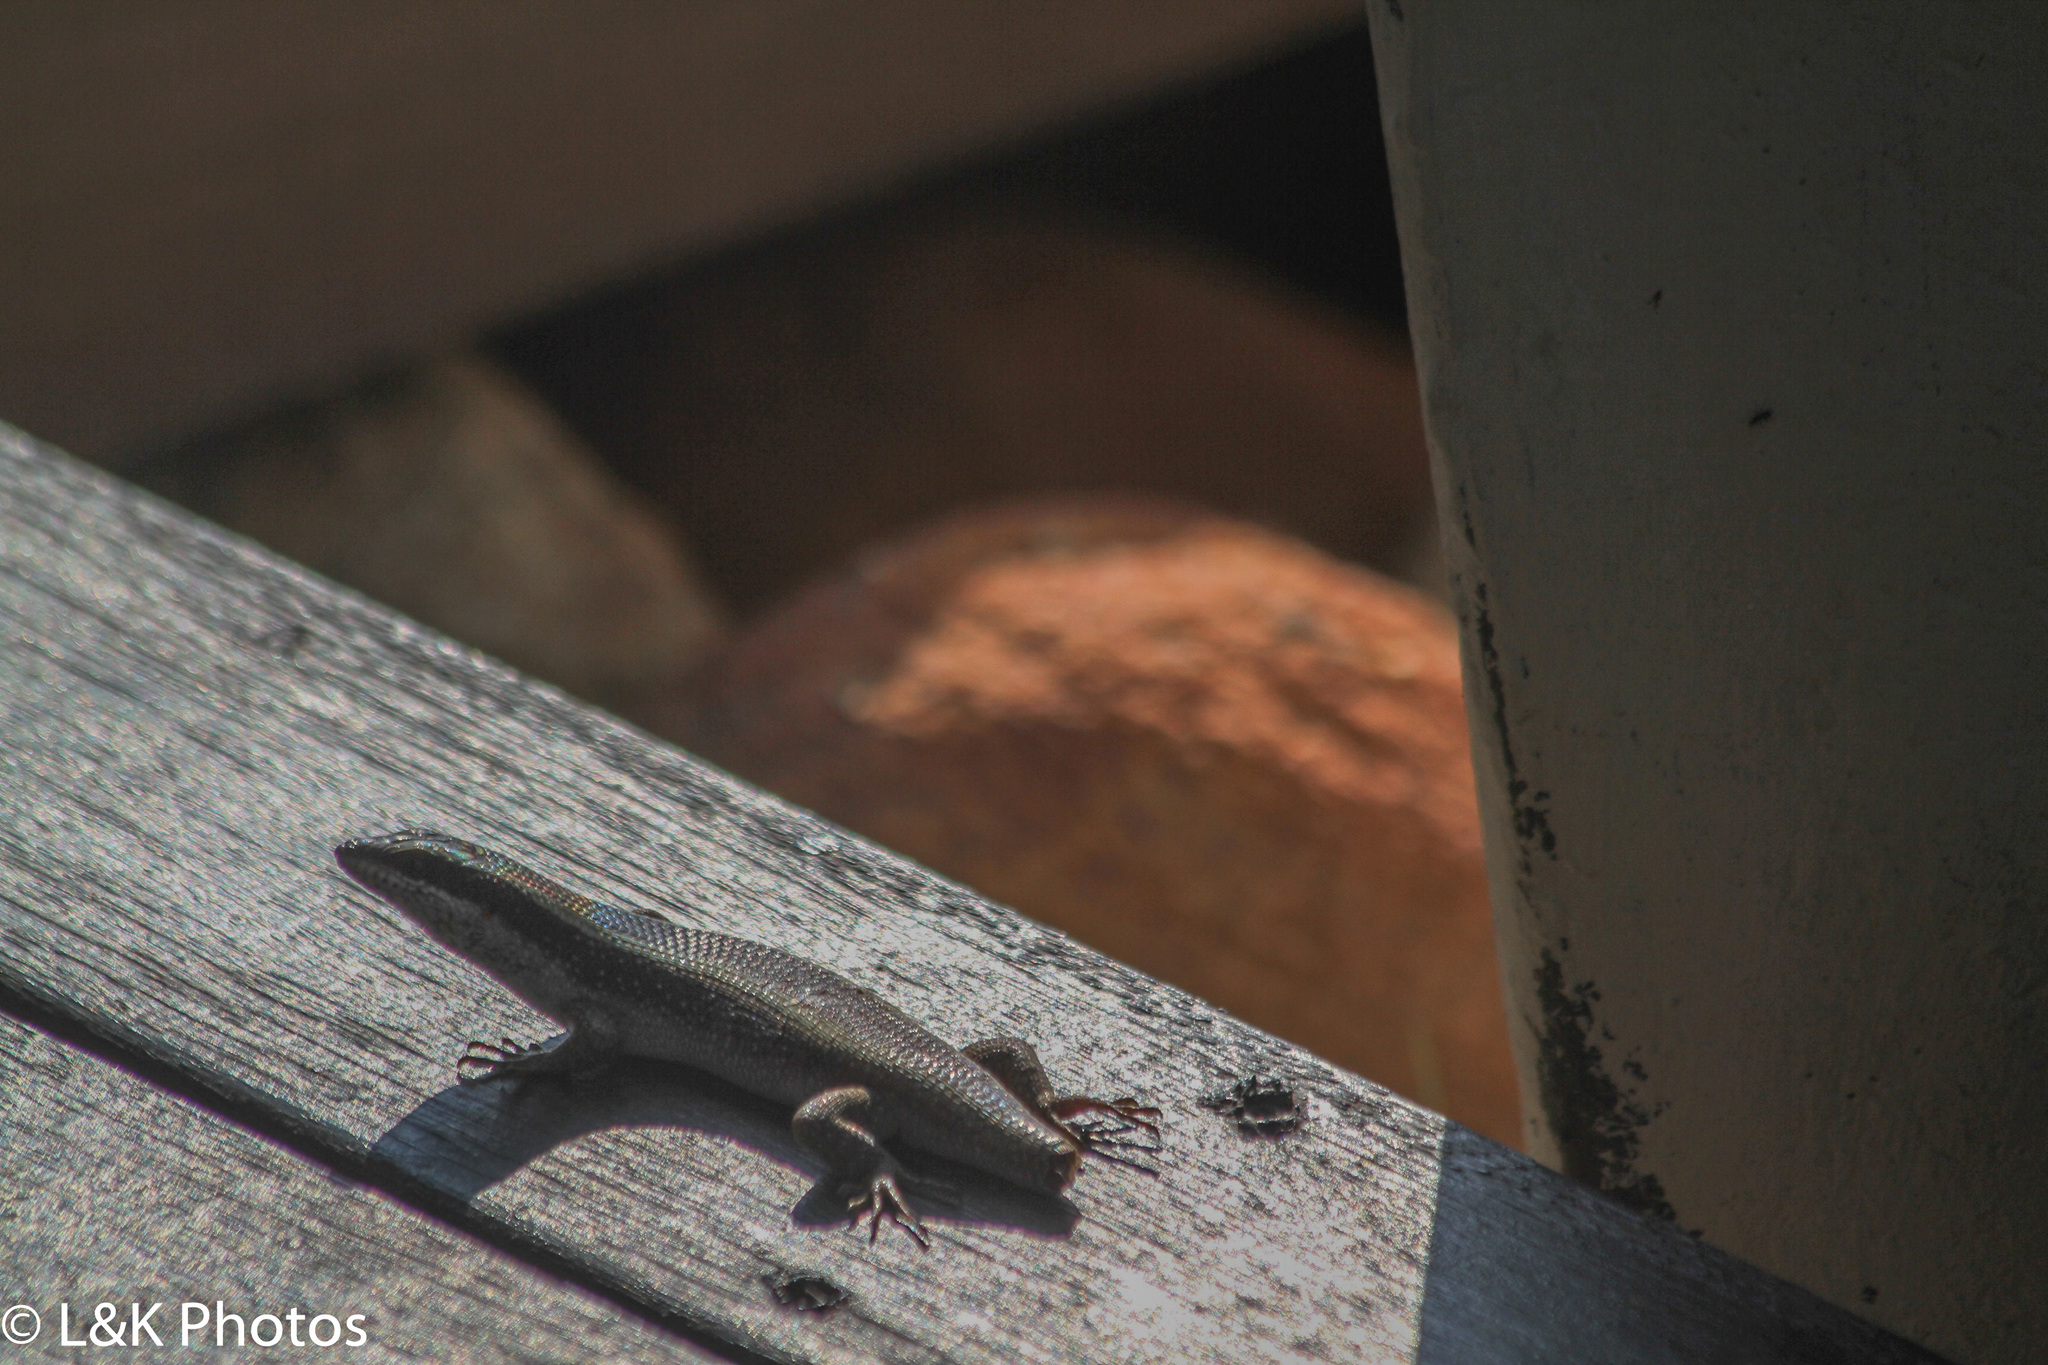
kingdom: Animalia
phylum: Chordata
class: Squamata
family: Scincidae
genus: Trachylepis
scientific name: Trachylepis striata
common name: African striped mabuya
